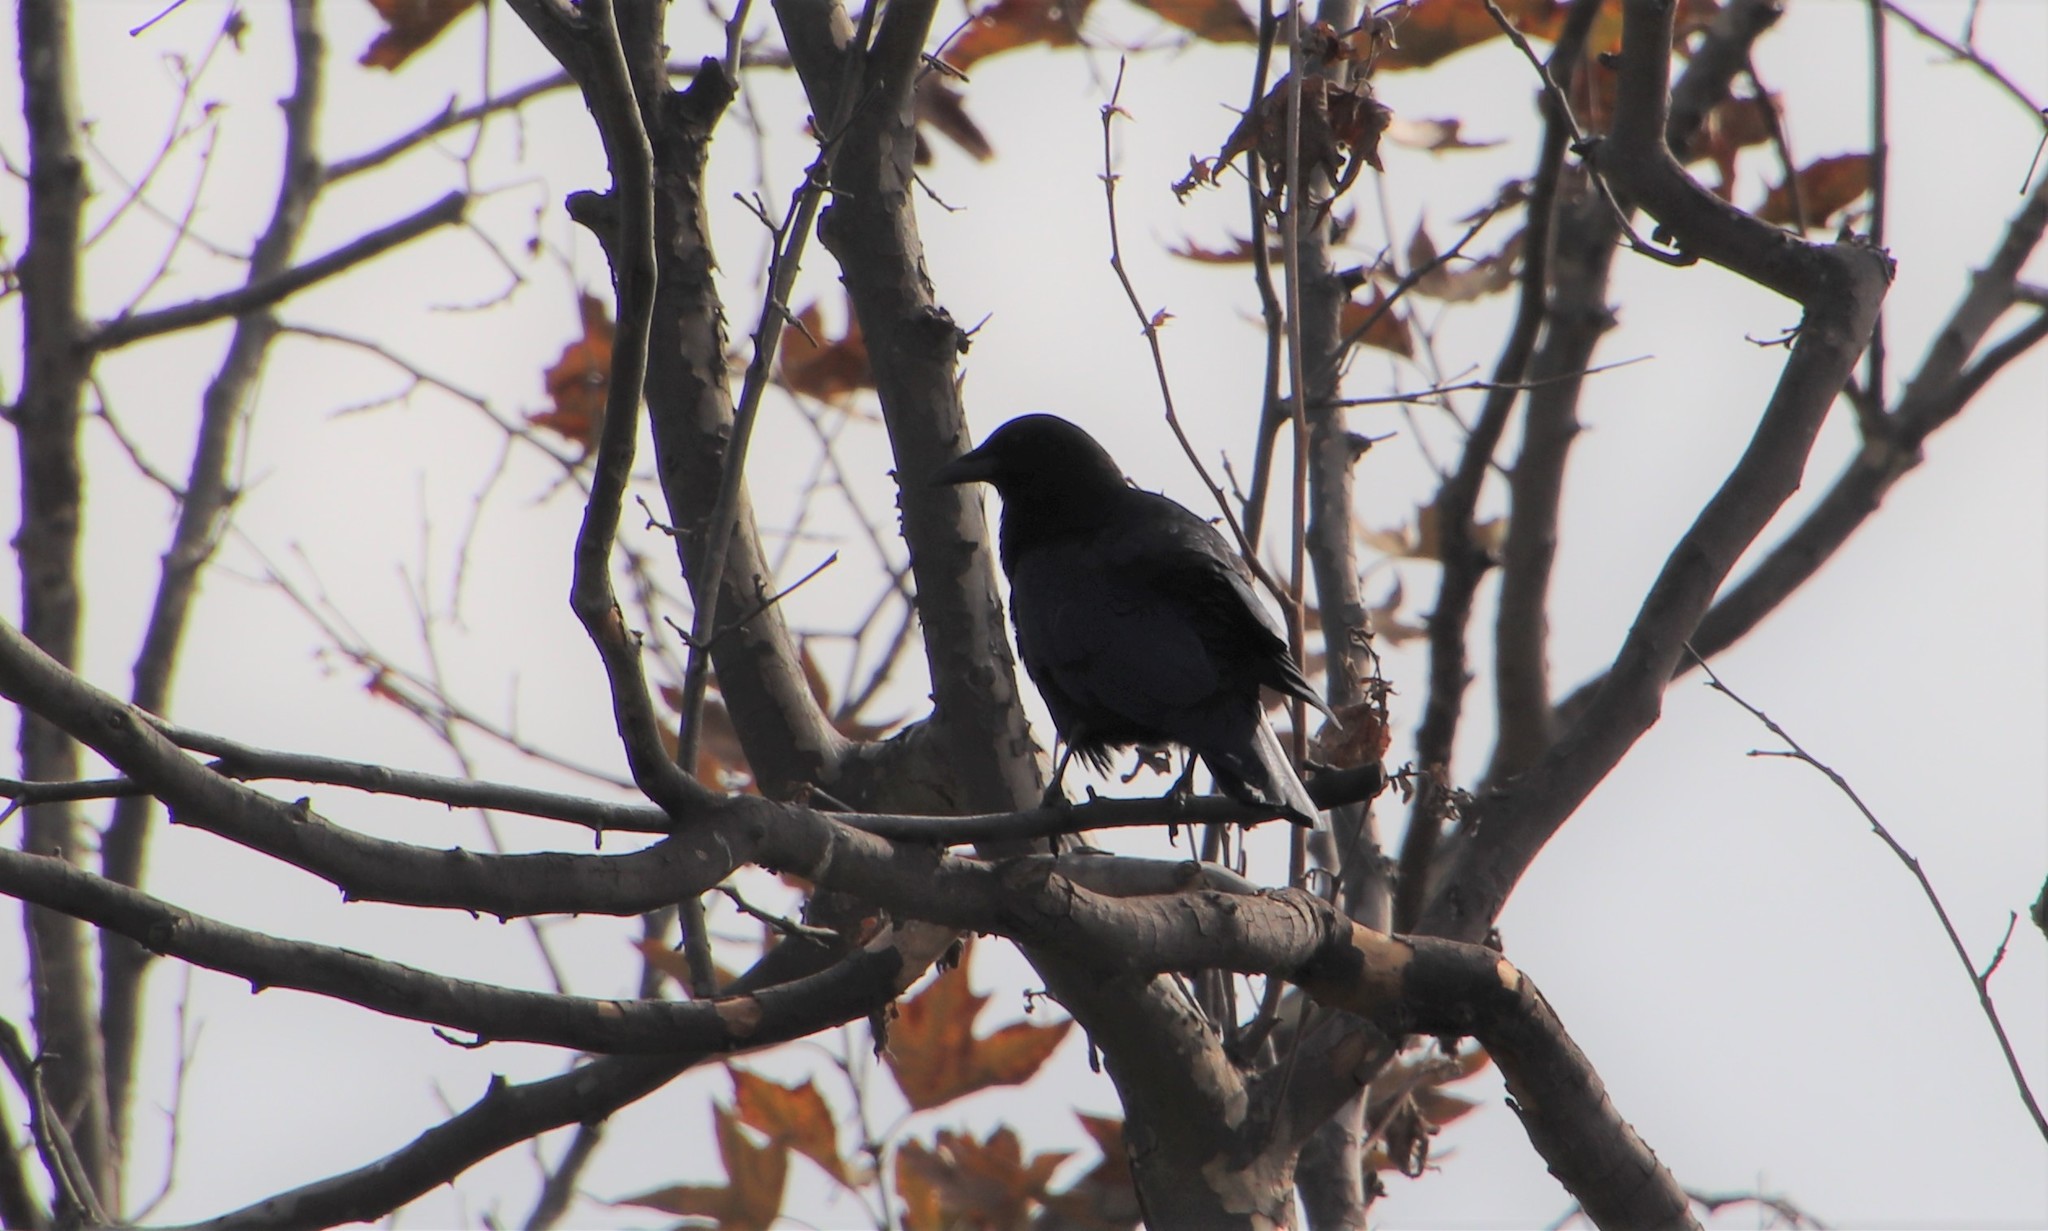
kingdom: Animalia
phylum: Chordata
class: Aves
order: Passeriformes
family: Corvidae
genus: Corvus
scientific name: Corvus brachyrhynchos
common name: American crow
